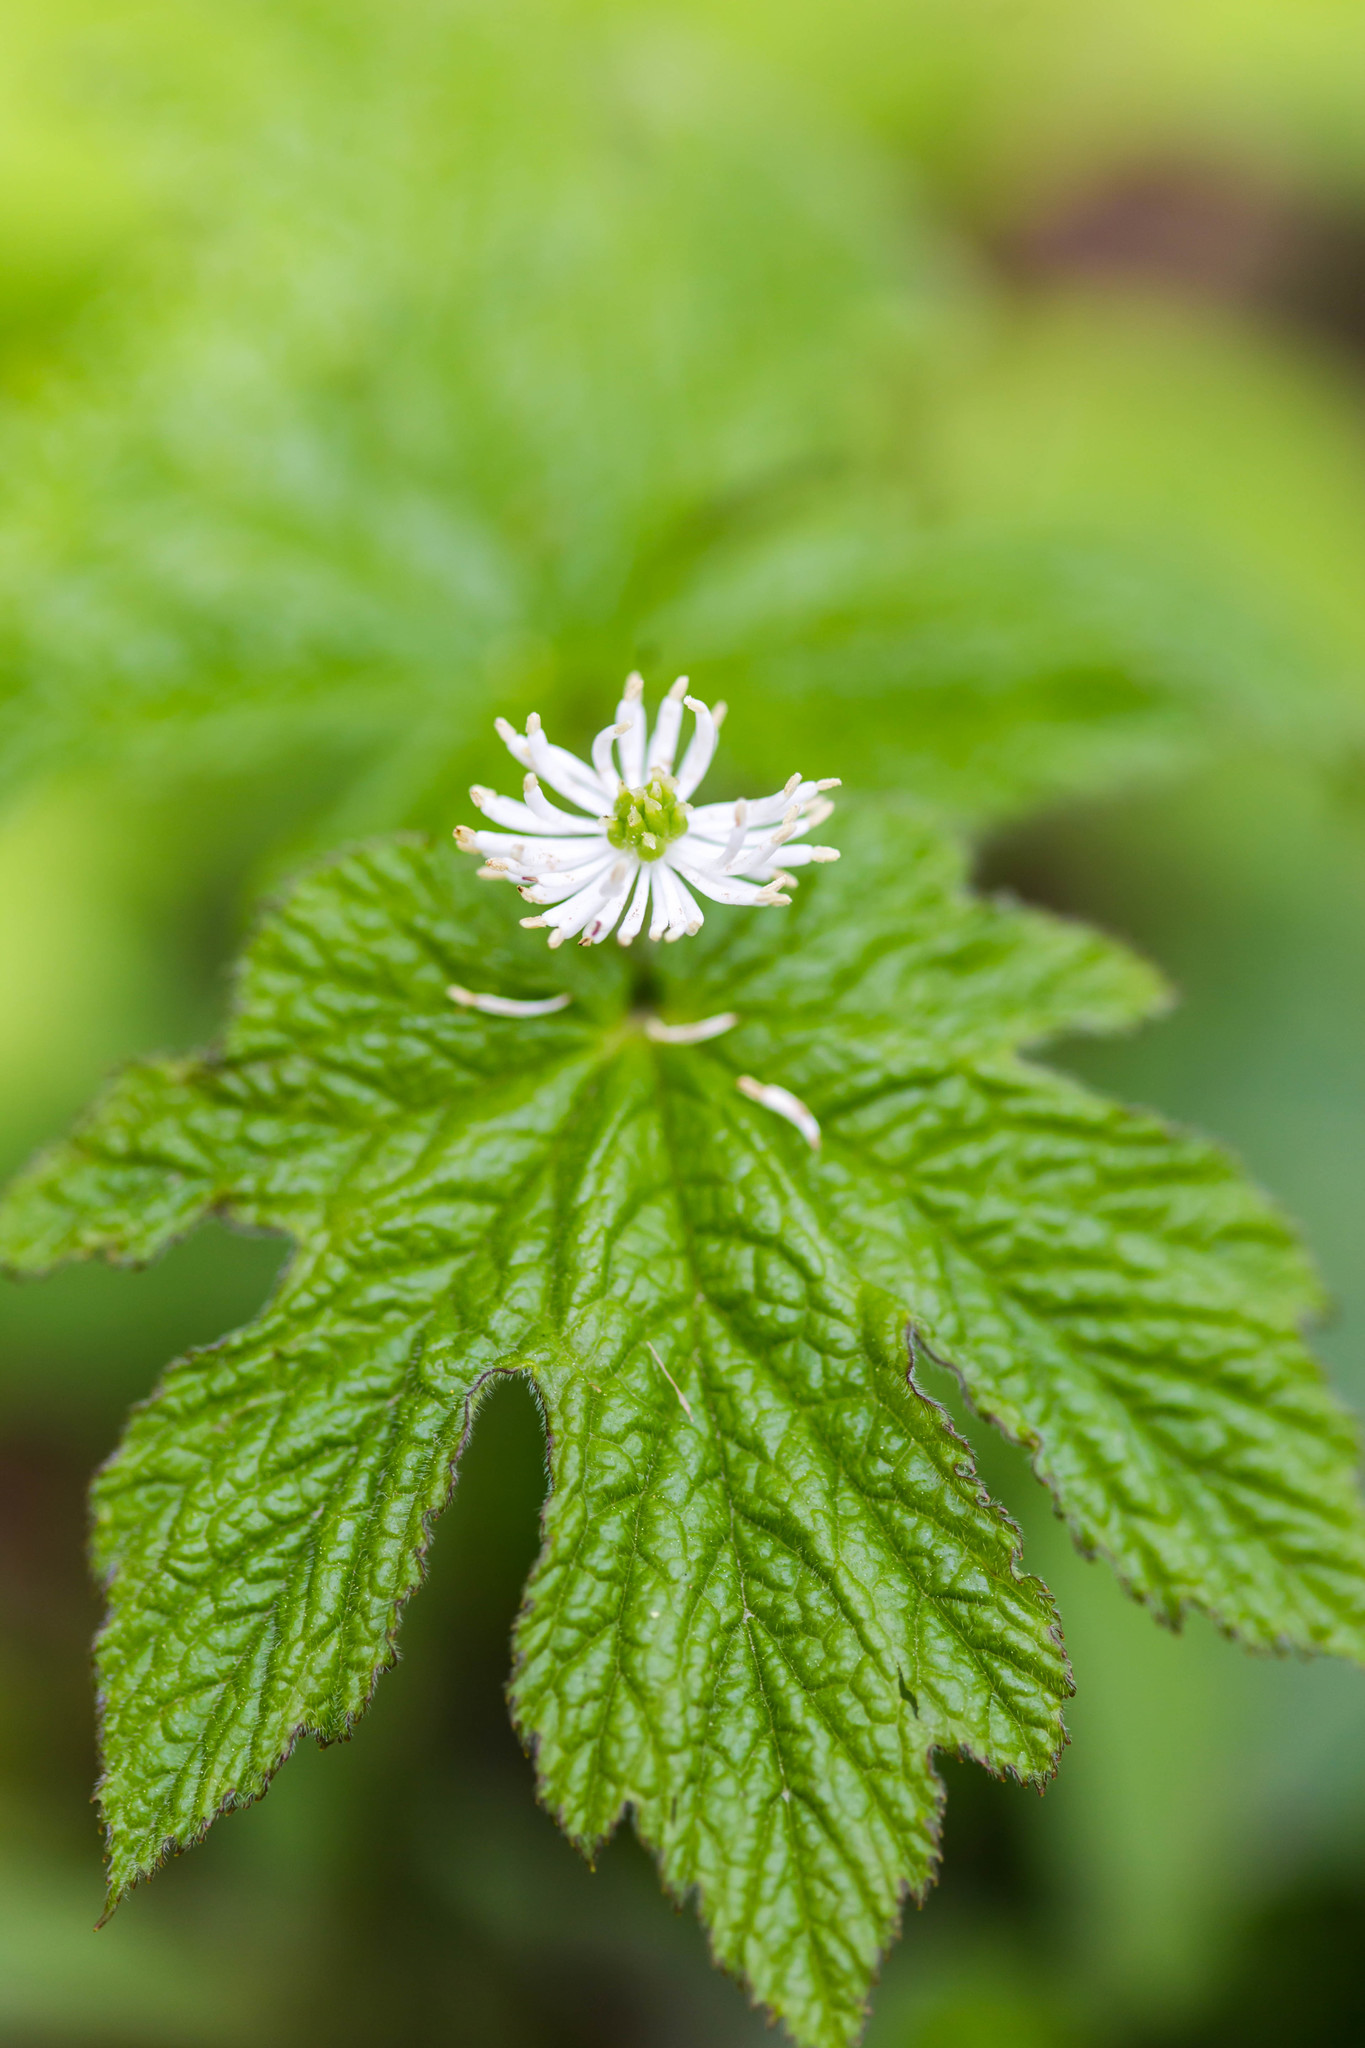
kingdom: Plantae
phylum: Tracheophyta
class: Magnoliopsida
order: Ranunculales
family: Ranunculaceae
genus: Hydrastis
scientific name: Hydrastis canadensis
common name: Goldenseal
